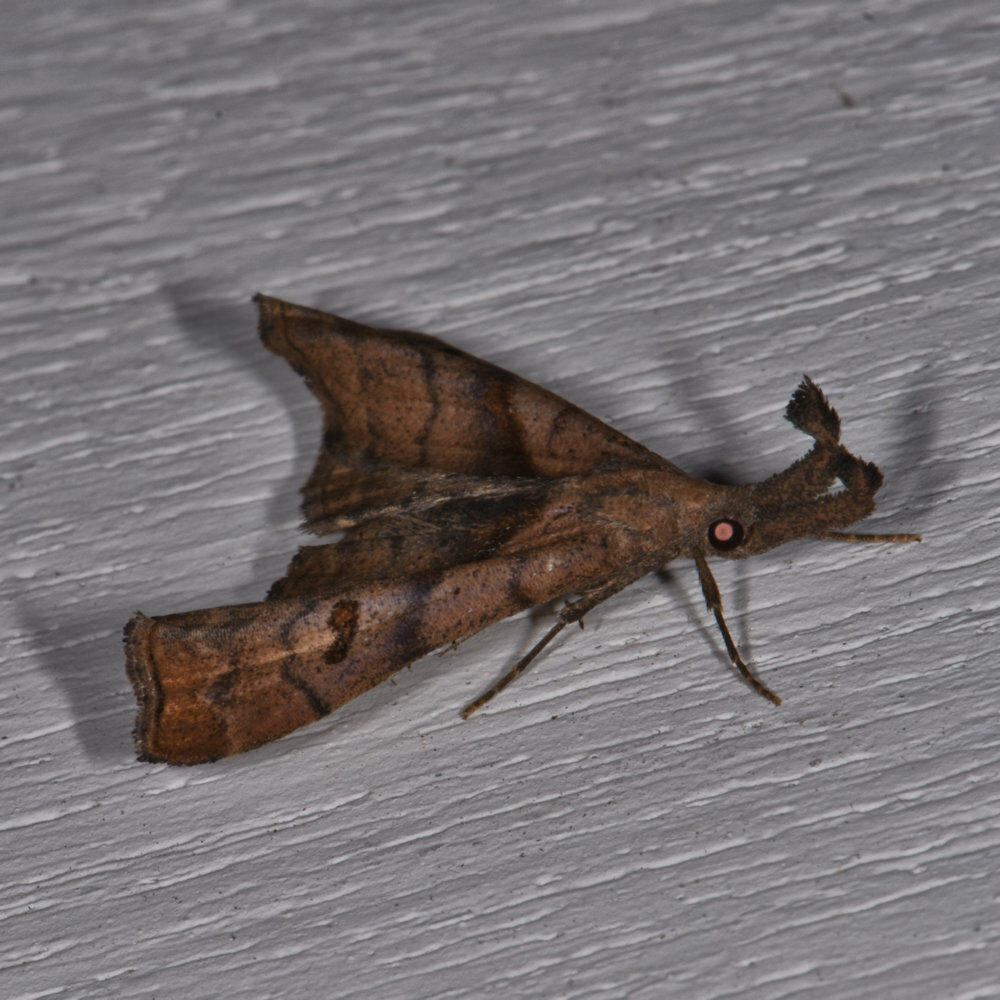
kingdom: Animalia
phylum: Arthropoda
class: Insecta
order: Lepidoptera
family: Erebidae
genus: Palthis
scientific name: Palthis angulalis
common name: Dark-spotted palthis moth
